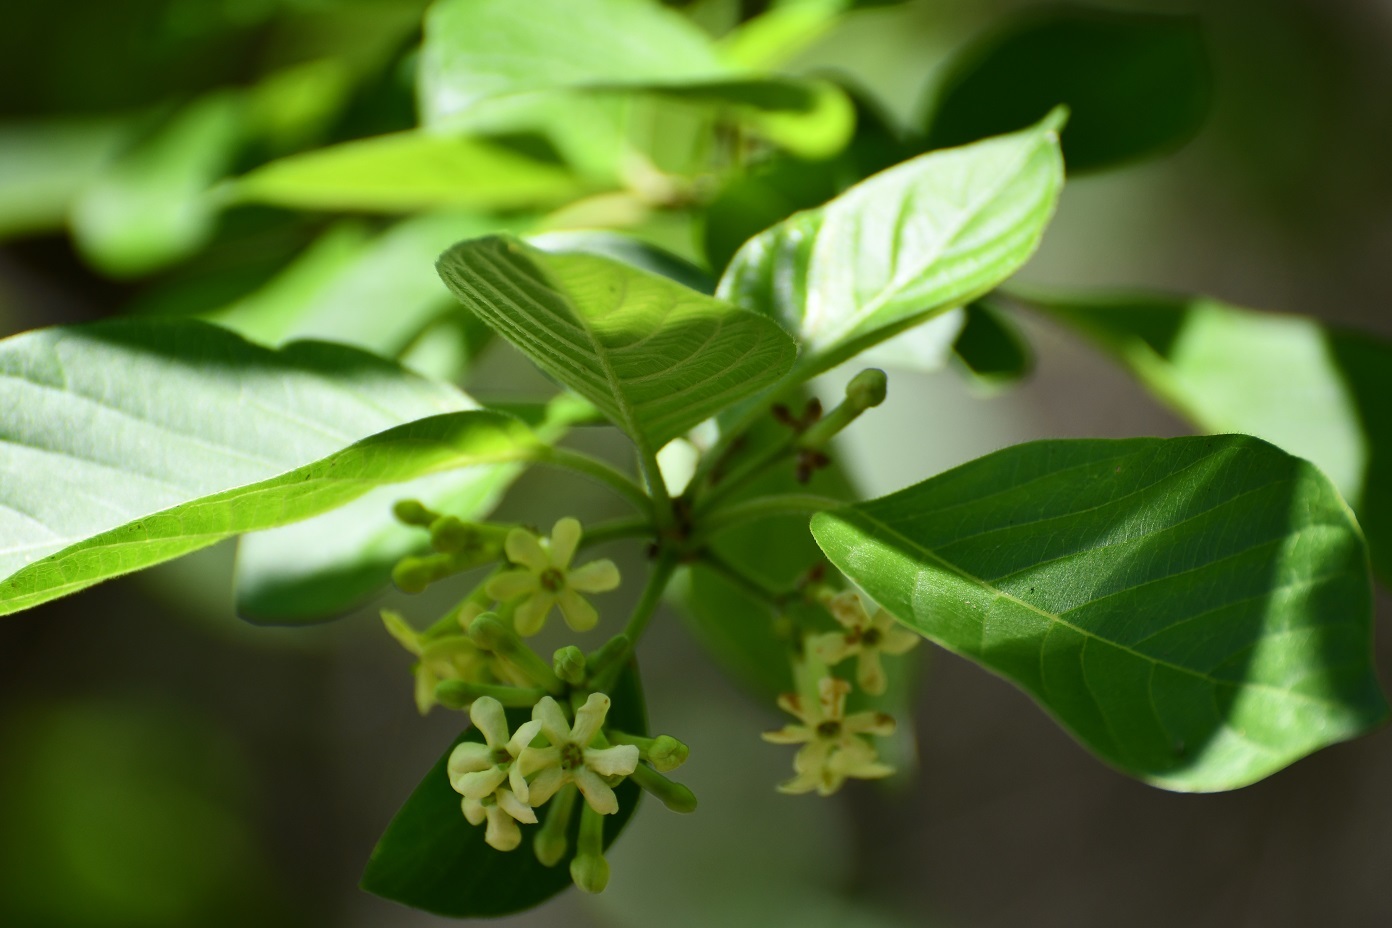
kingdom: Plantae
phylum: Tracheophyta
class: Magnoliopsida
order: Gentianales
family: Rubiaceae
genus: Guettarda
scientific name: Guettarda elliptica
